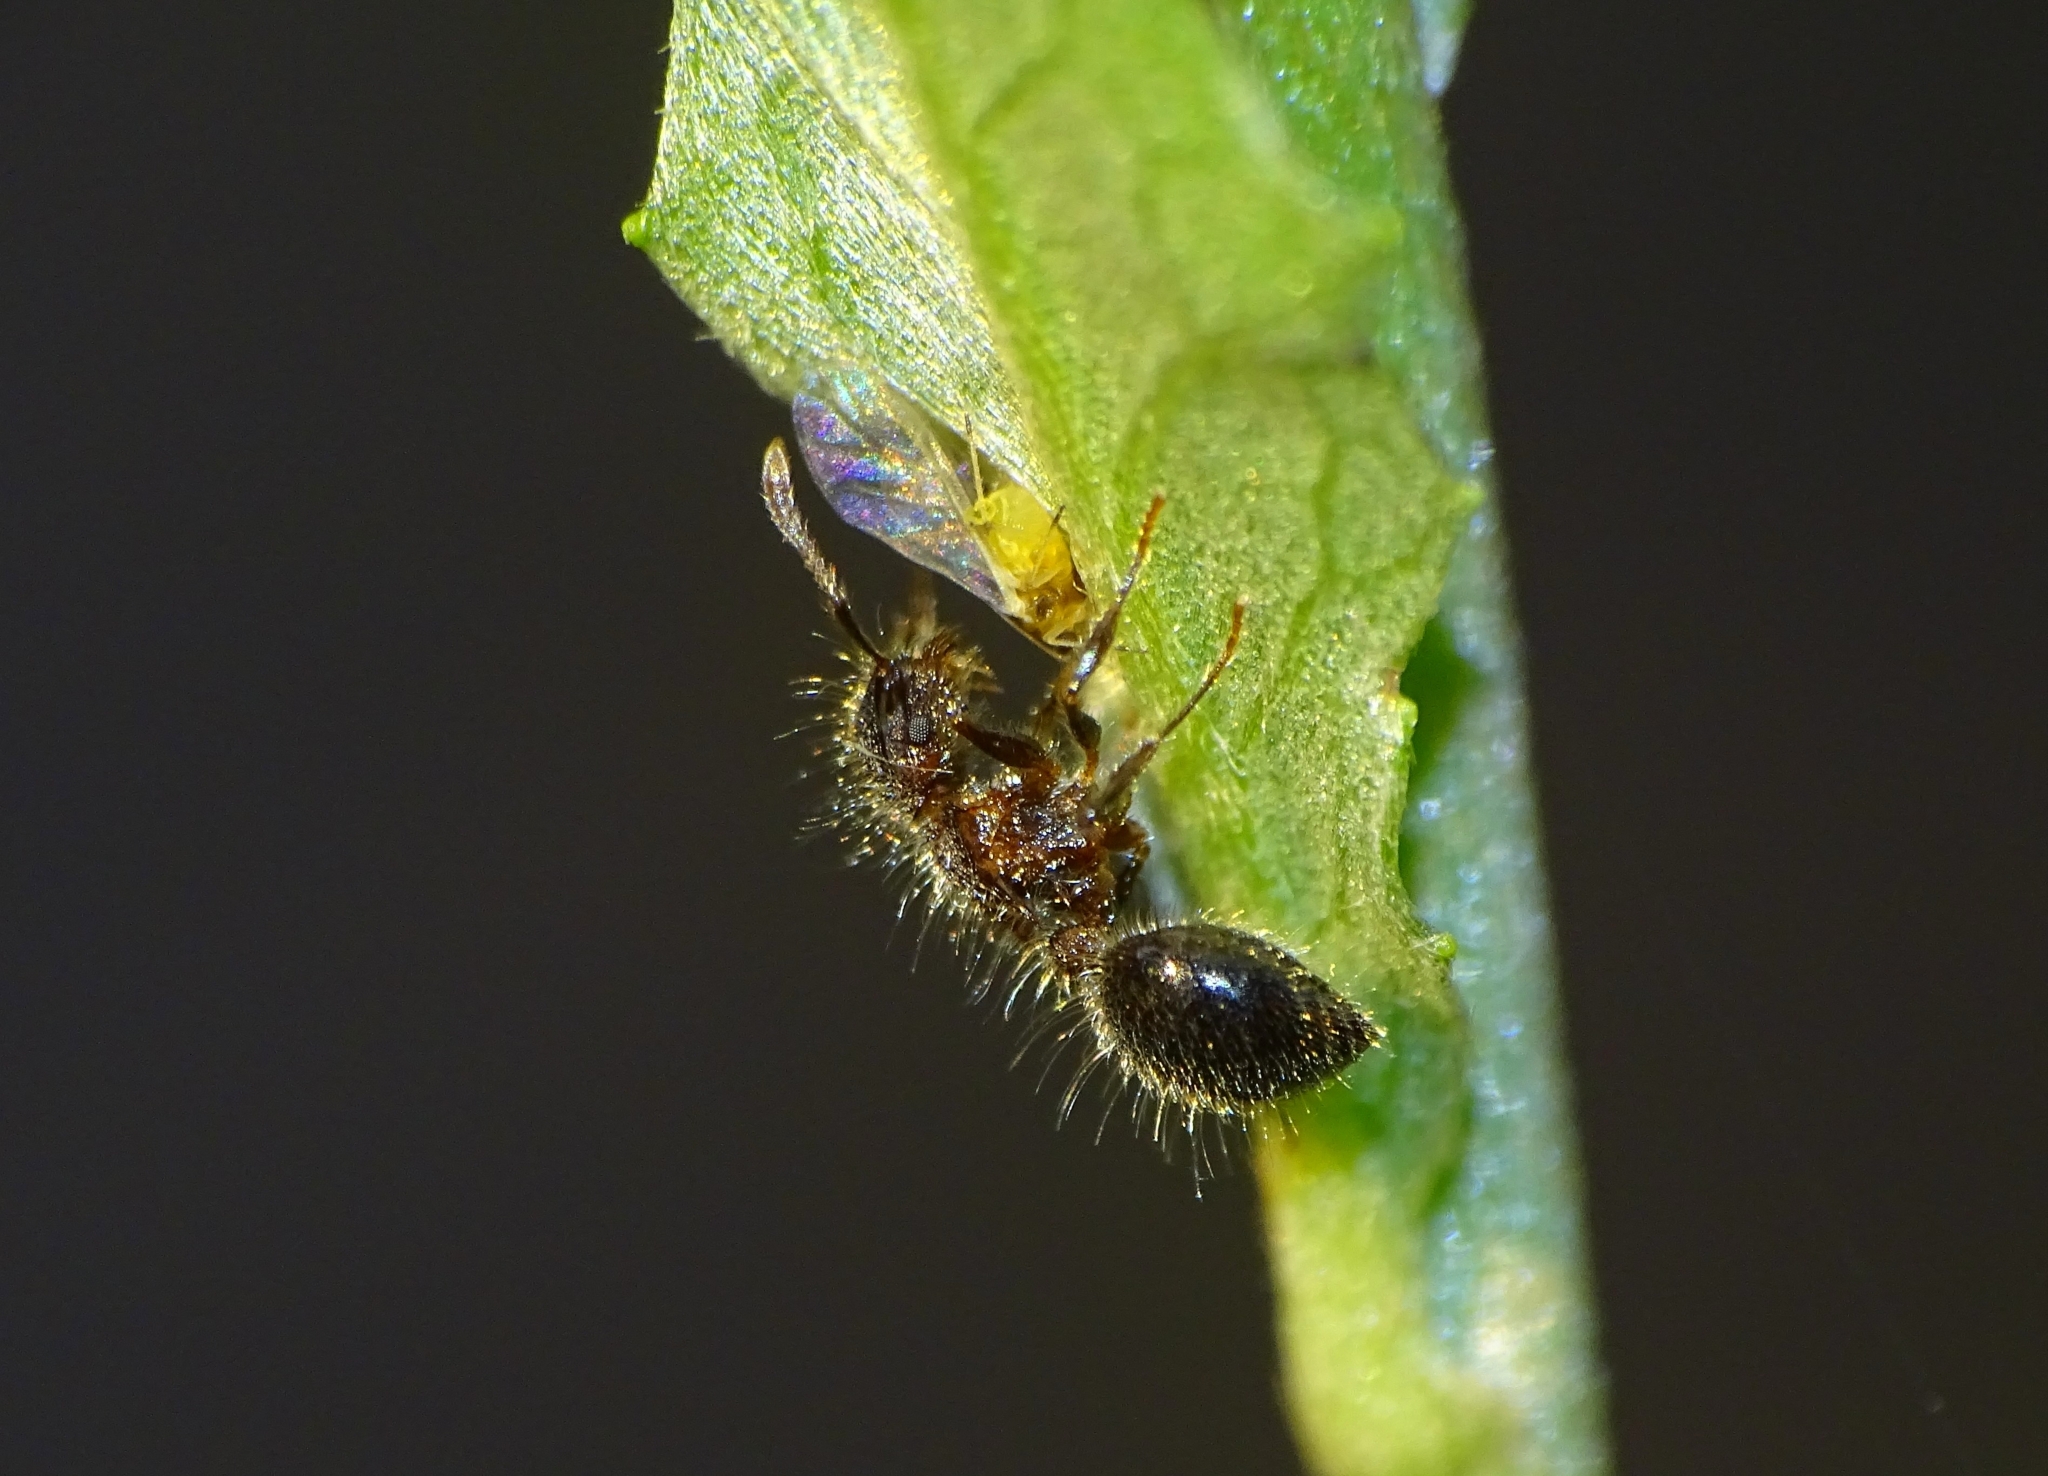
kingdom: Animalia
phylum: Arthropoda
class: Insecta
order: Hymenoptera
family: Formicidae
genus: Meranoplus
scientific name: Meranoplus bicolor
